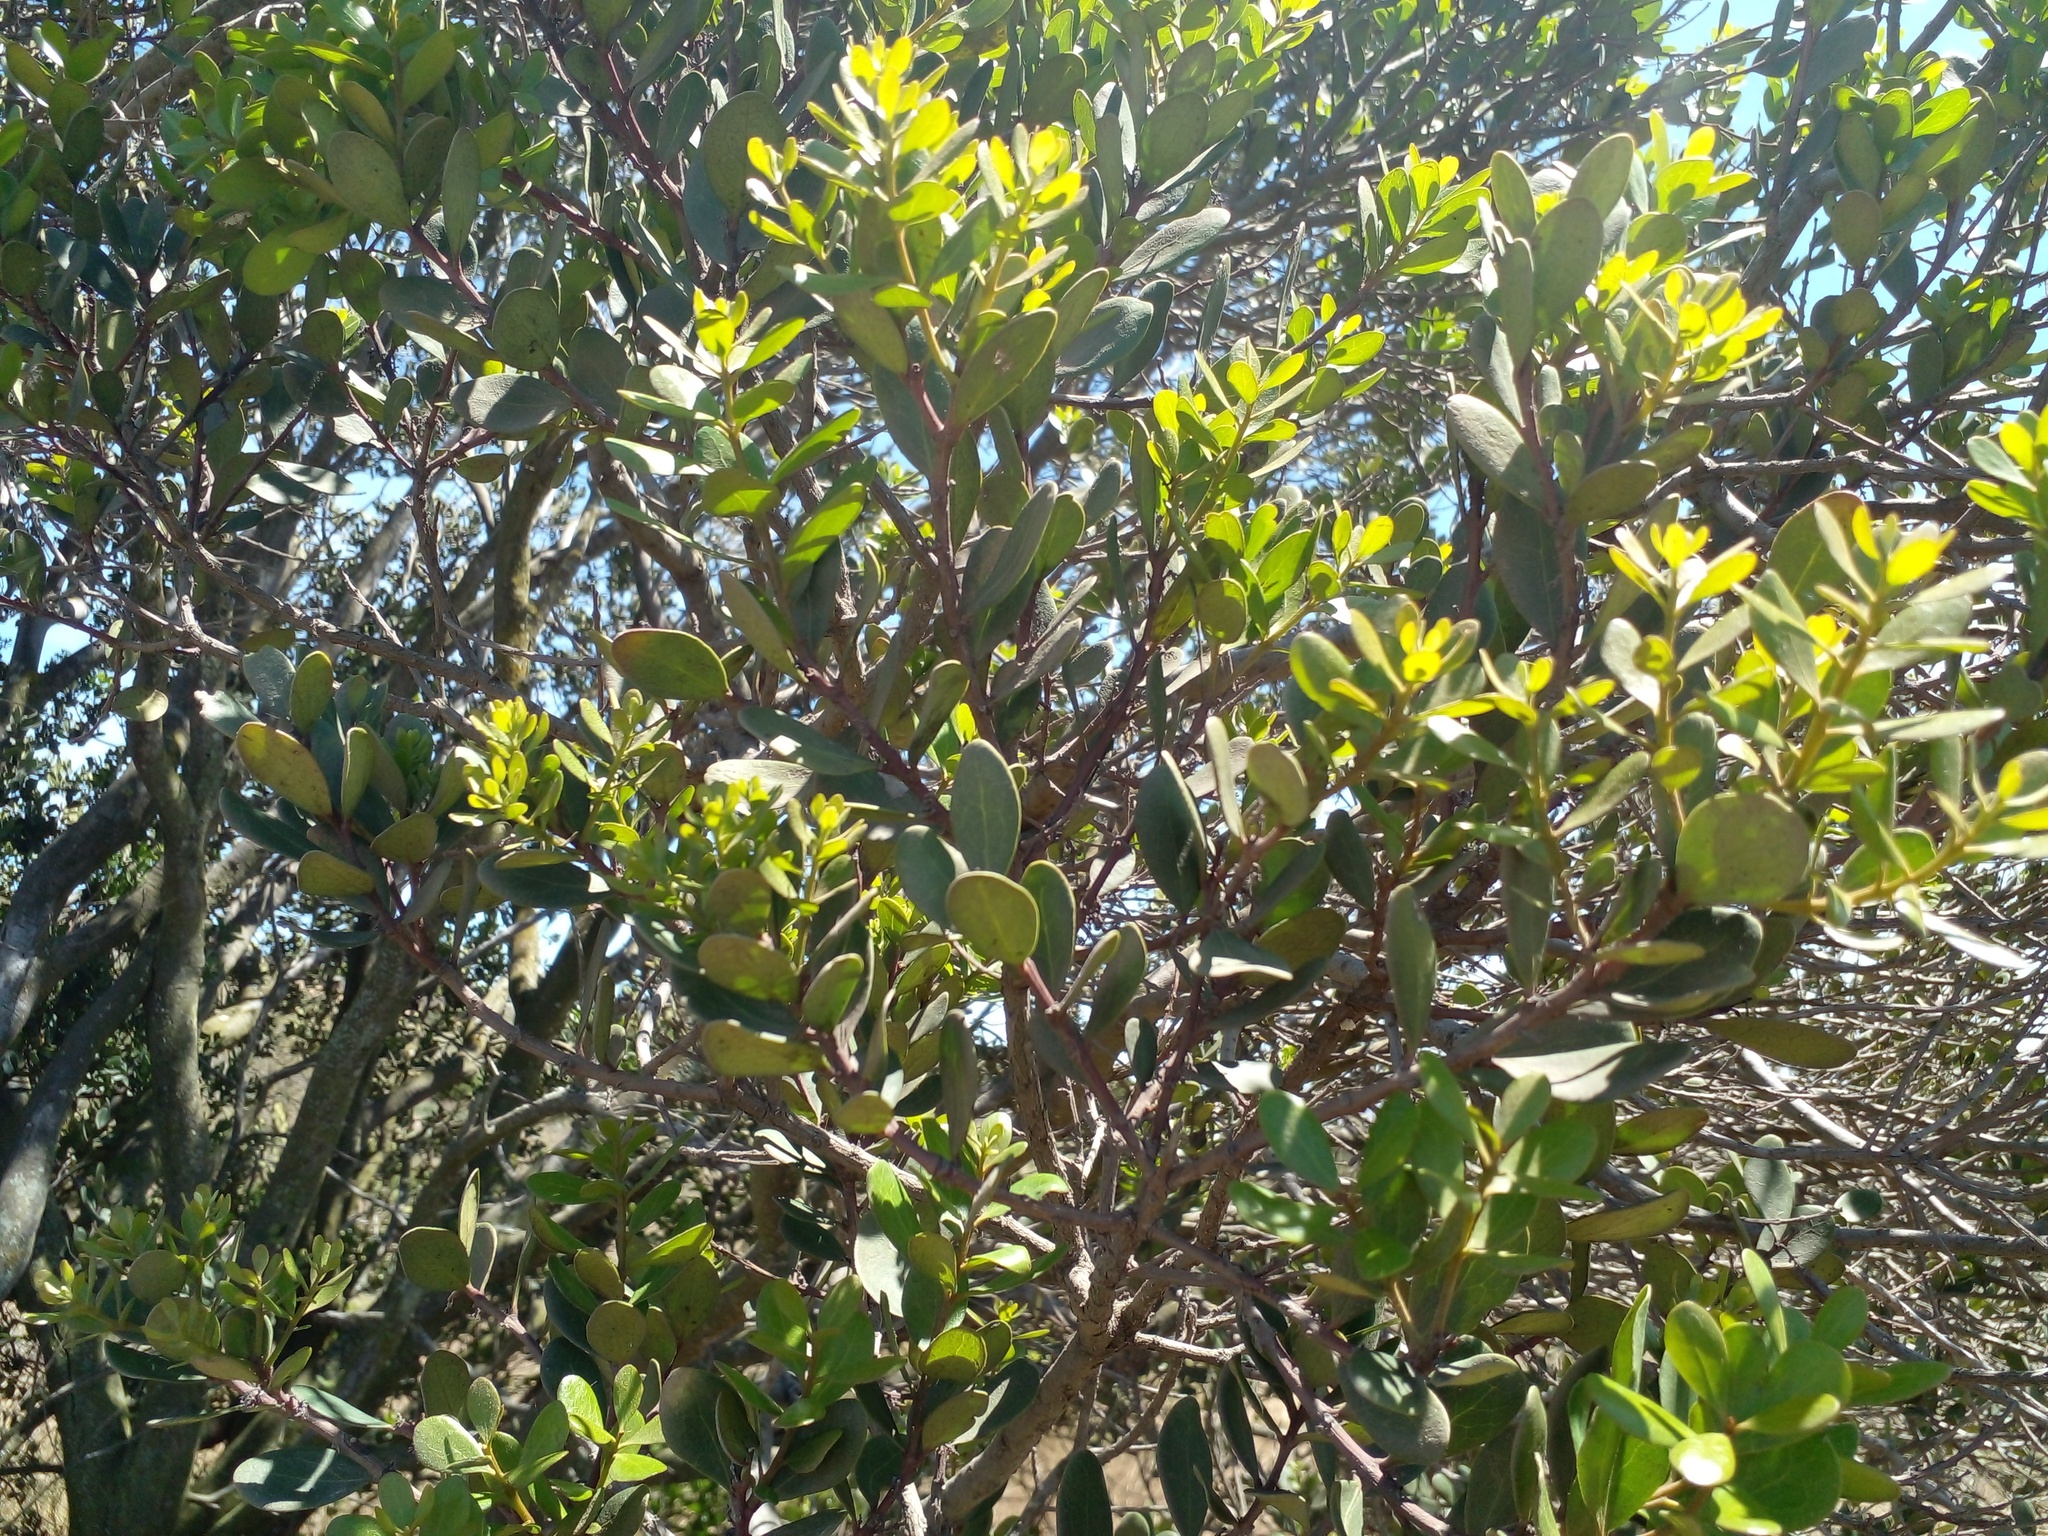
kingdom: Plantae
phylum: Tracheophyta
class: Magnoliopsida
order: Ericales
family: Ebenaceae
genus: Euclea
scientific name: Euclea racemosa
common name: Dune guarri
